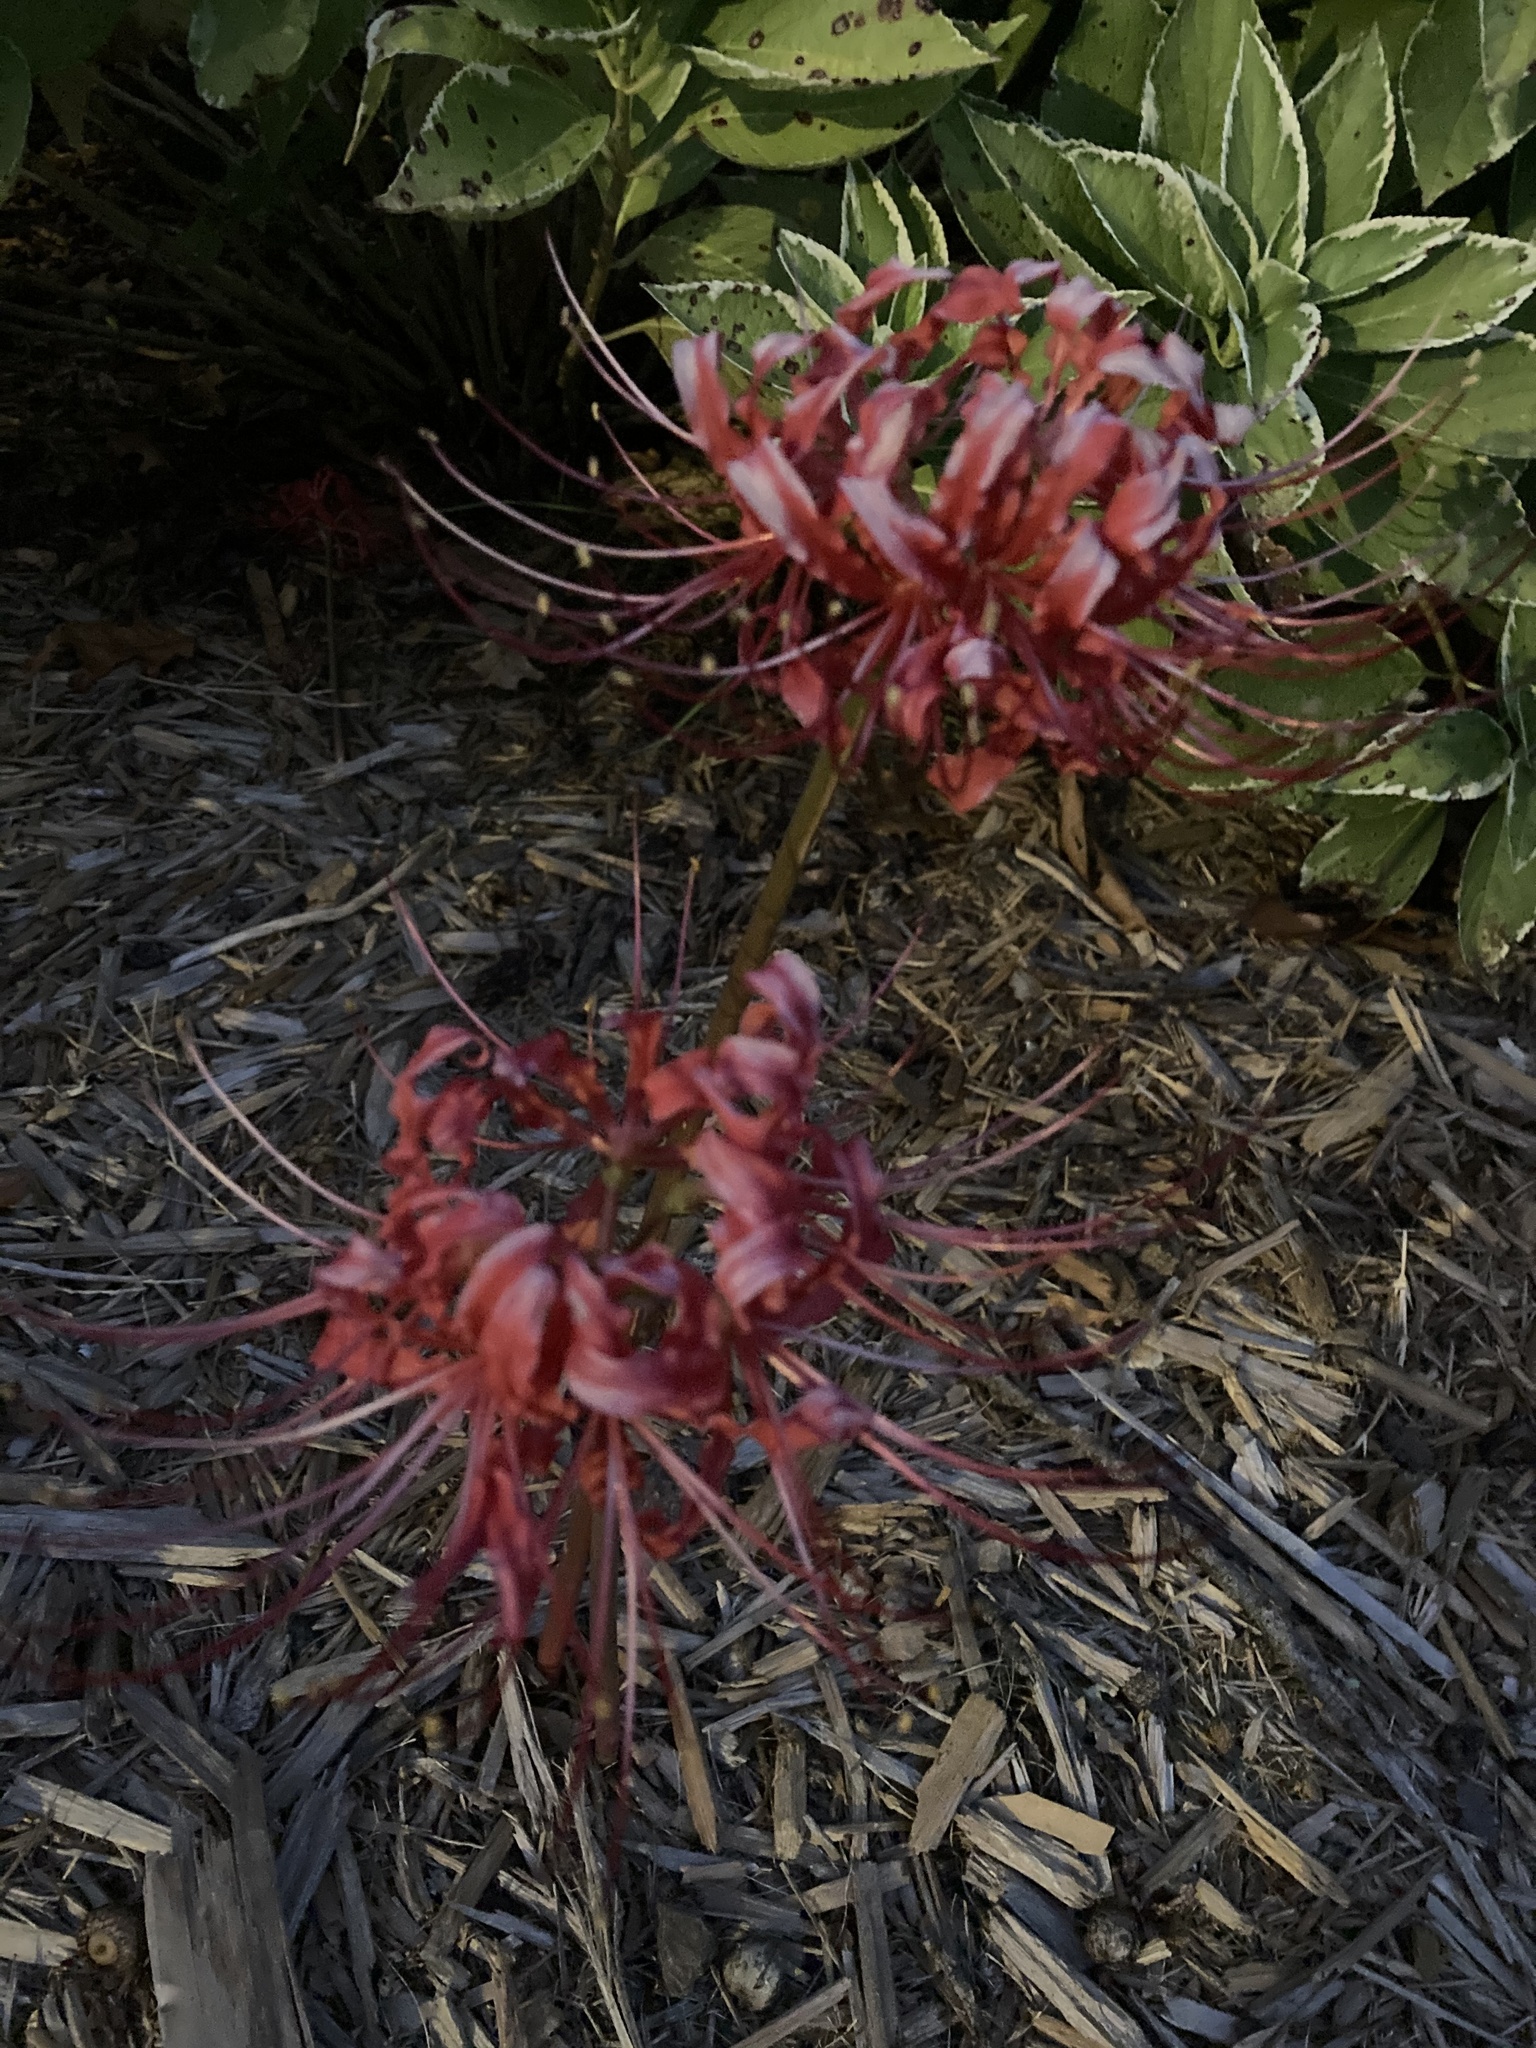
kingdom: Plantae
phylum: Tracheophyta
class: Liliopsida
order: Asparagales
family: Amaryllidaceae
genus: Lycoris
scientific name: Lycoris radiata
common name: Red spider lily
